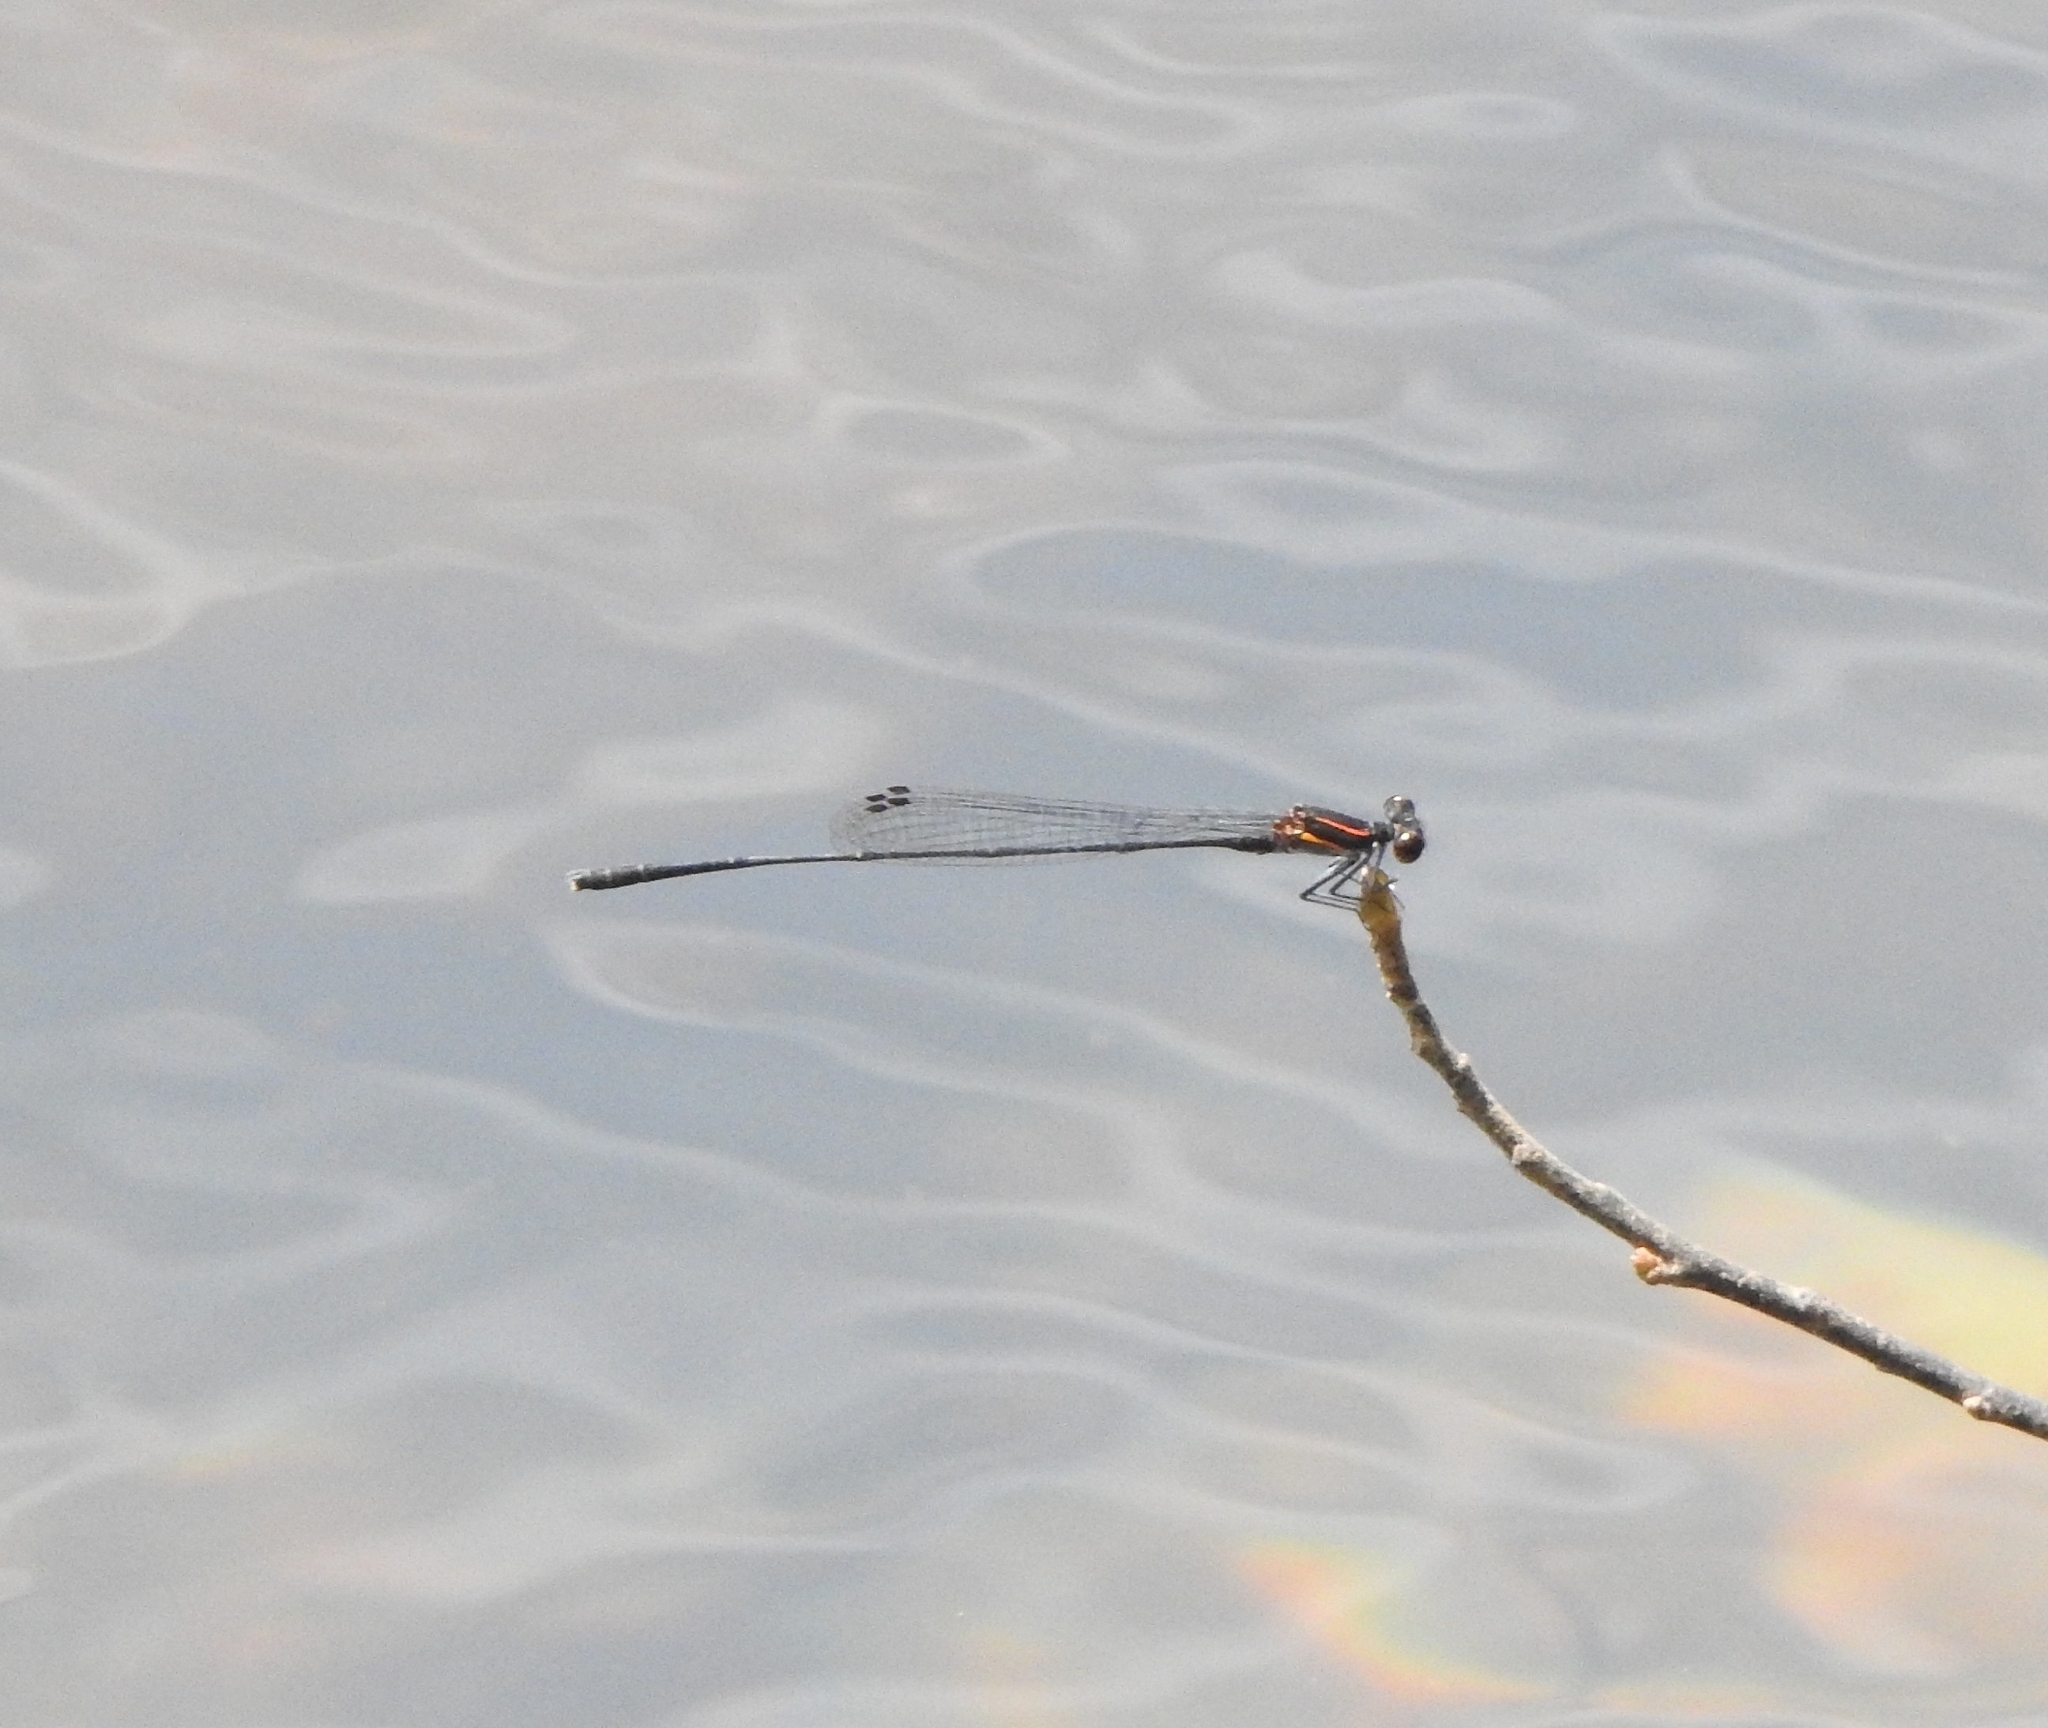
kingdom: Animalia
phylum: Arthropoda
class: Insecta
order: Odonata
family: Platycnemididae
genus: Prodasineura
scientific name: Prodasineura verticalis
